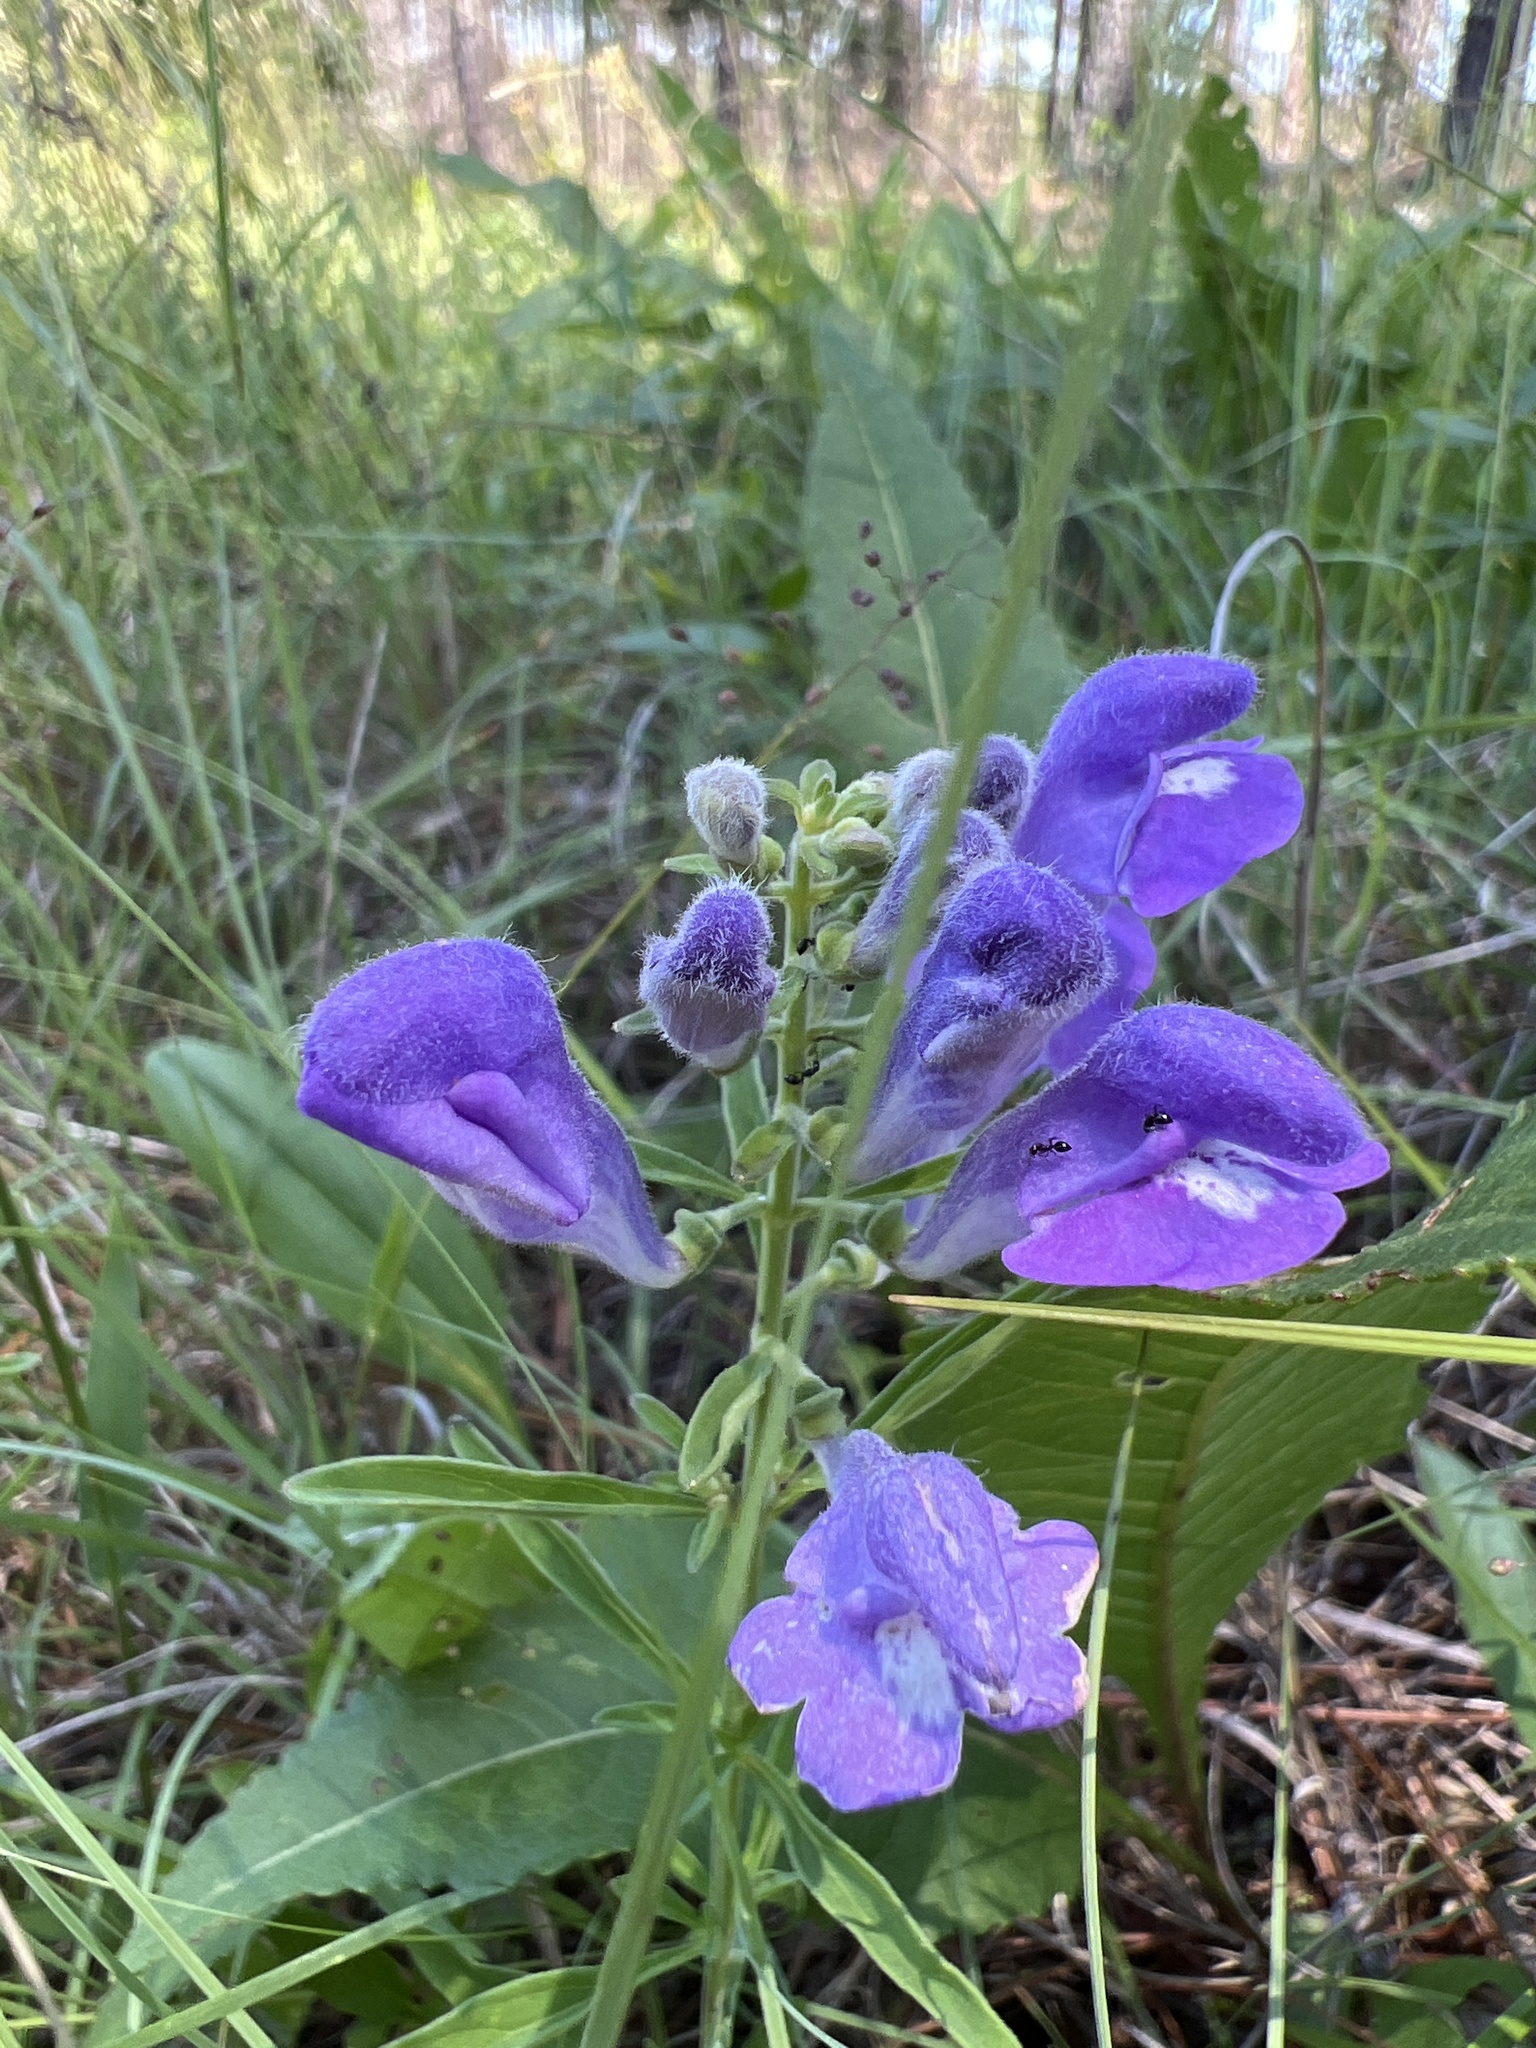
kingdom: Plantae
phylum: Tracheophyta
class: Magnoliopsida
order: Lamiales
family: Lamiaceae
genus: Scutellaria
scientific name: Scutellaria integrifolia
